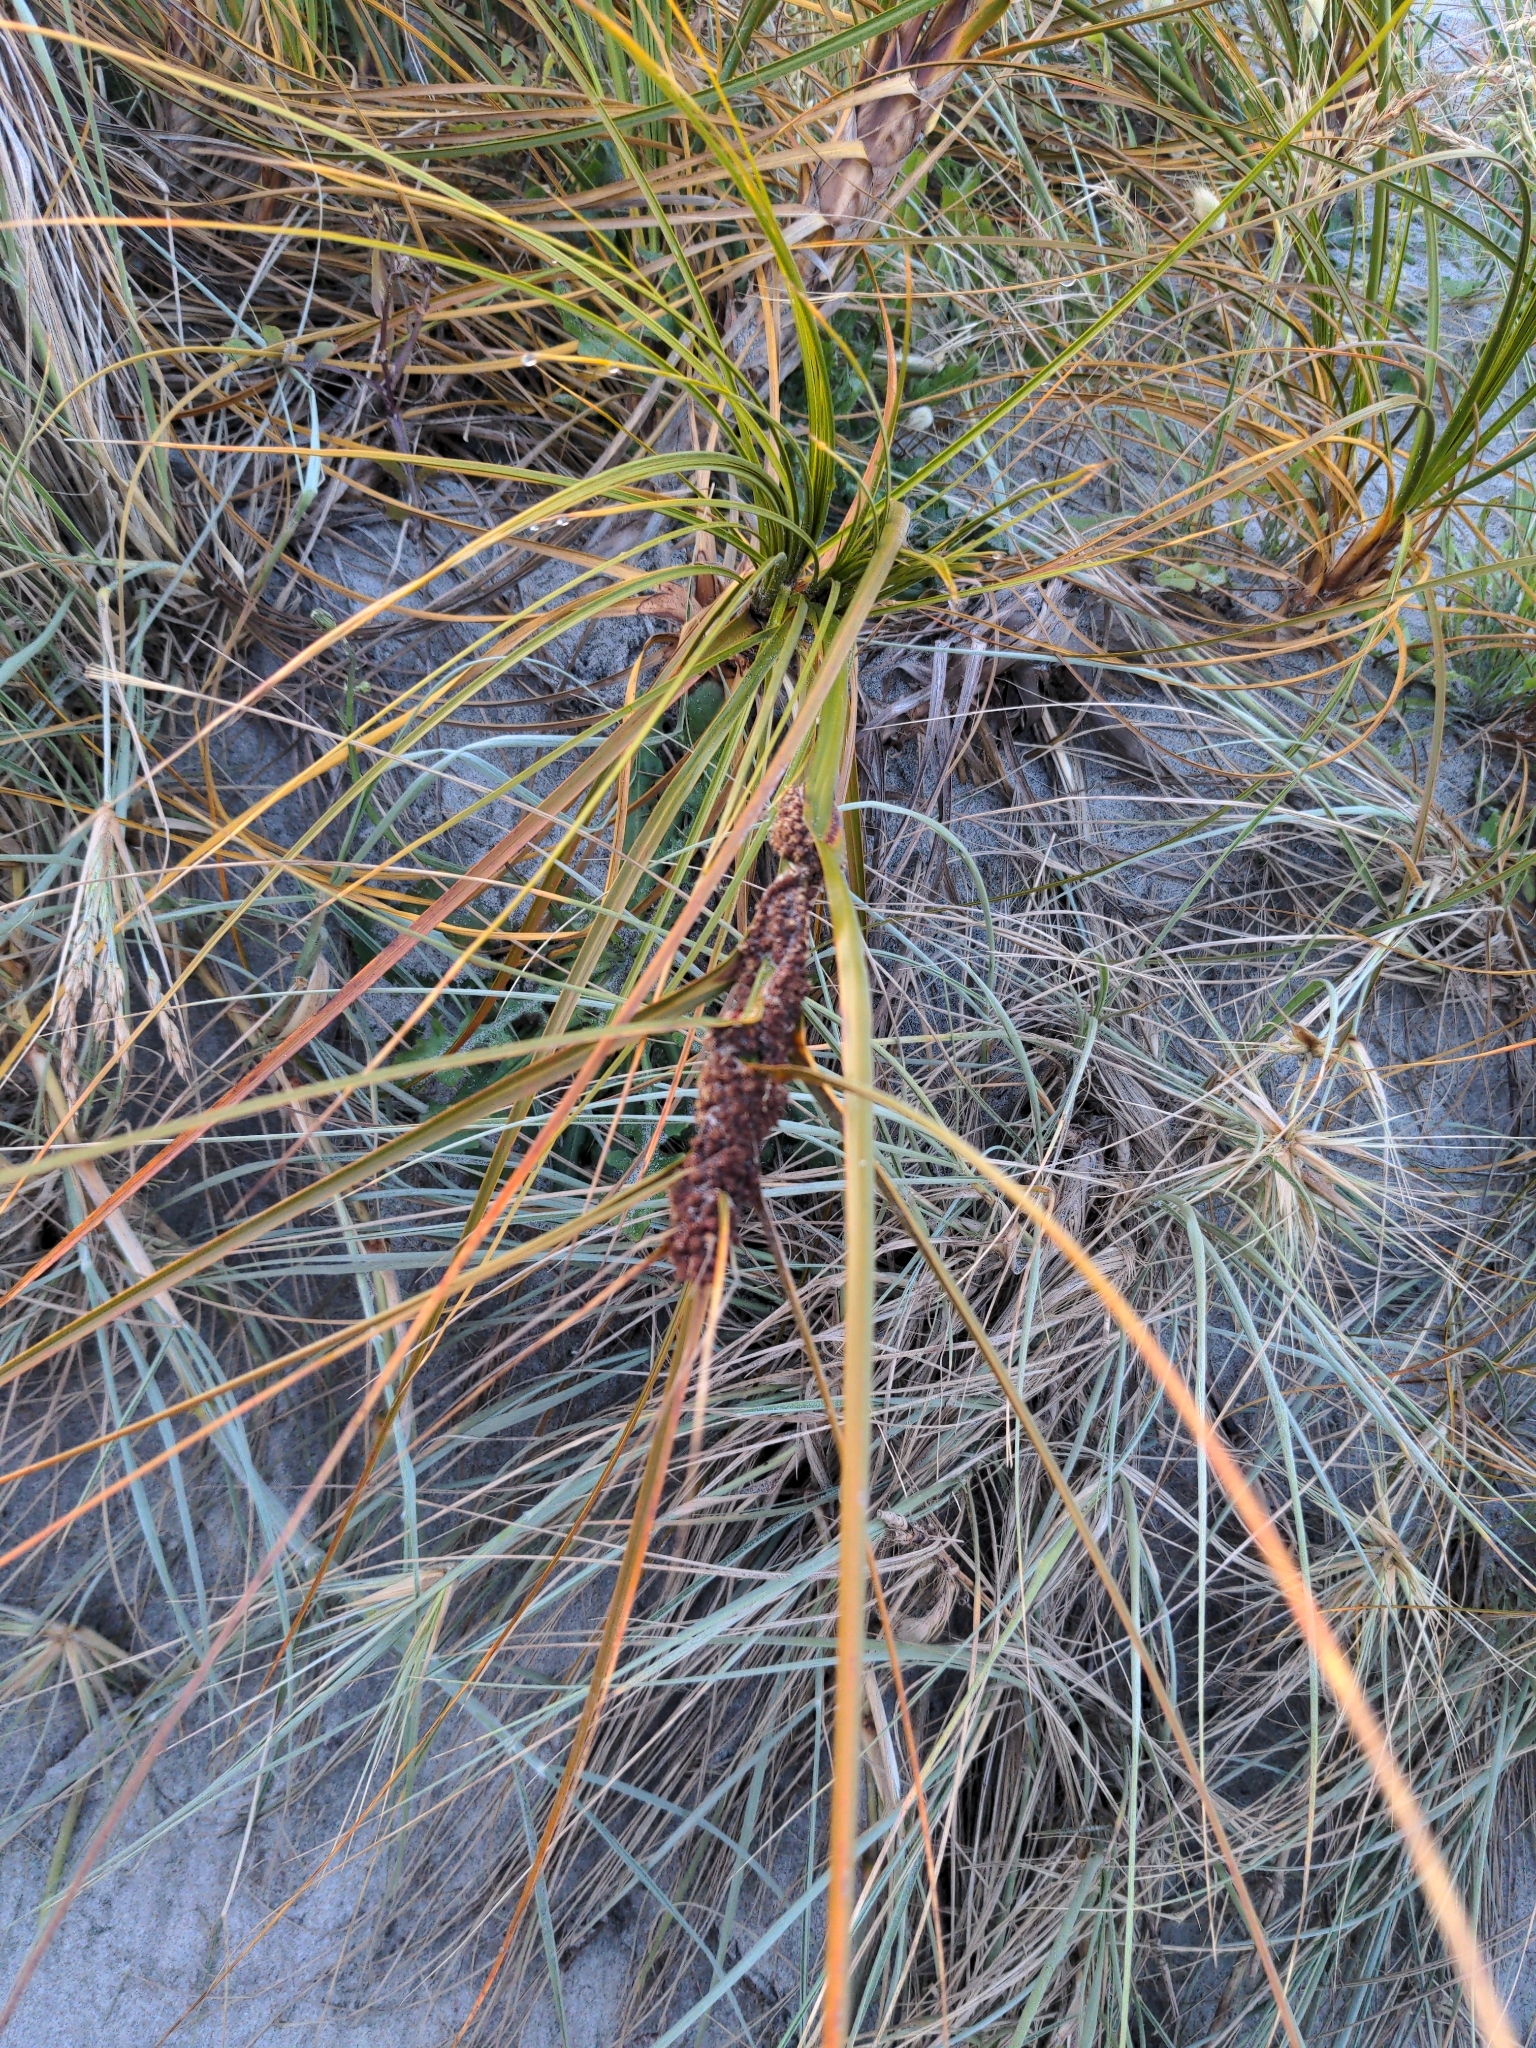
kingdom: Plantae
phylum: Tracheophyta
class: Liliopsida
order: Poales
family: Cyperaceae
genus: Ficinia
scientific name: Ficinia spiralis
